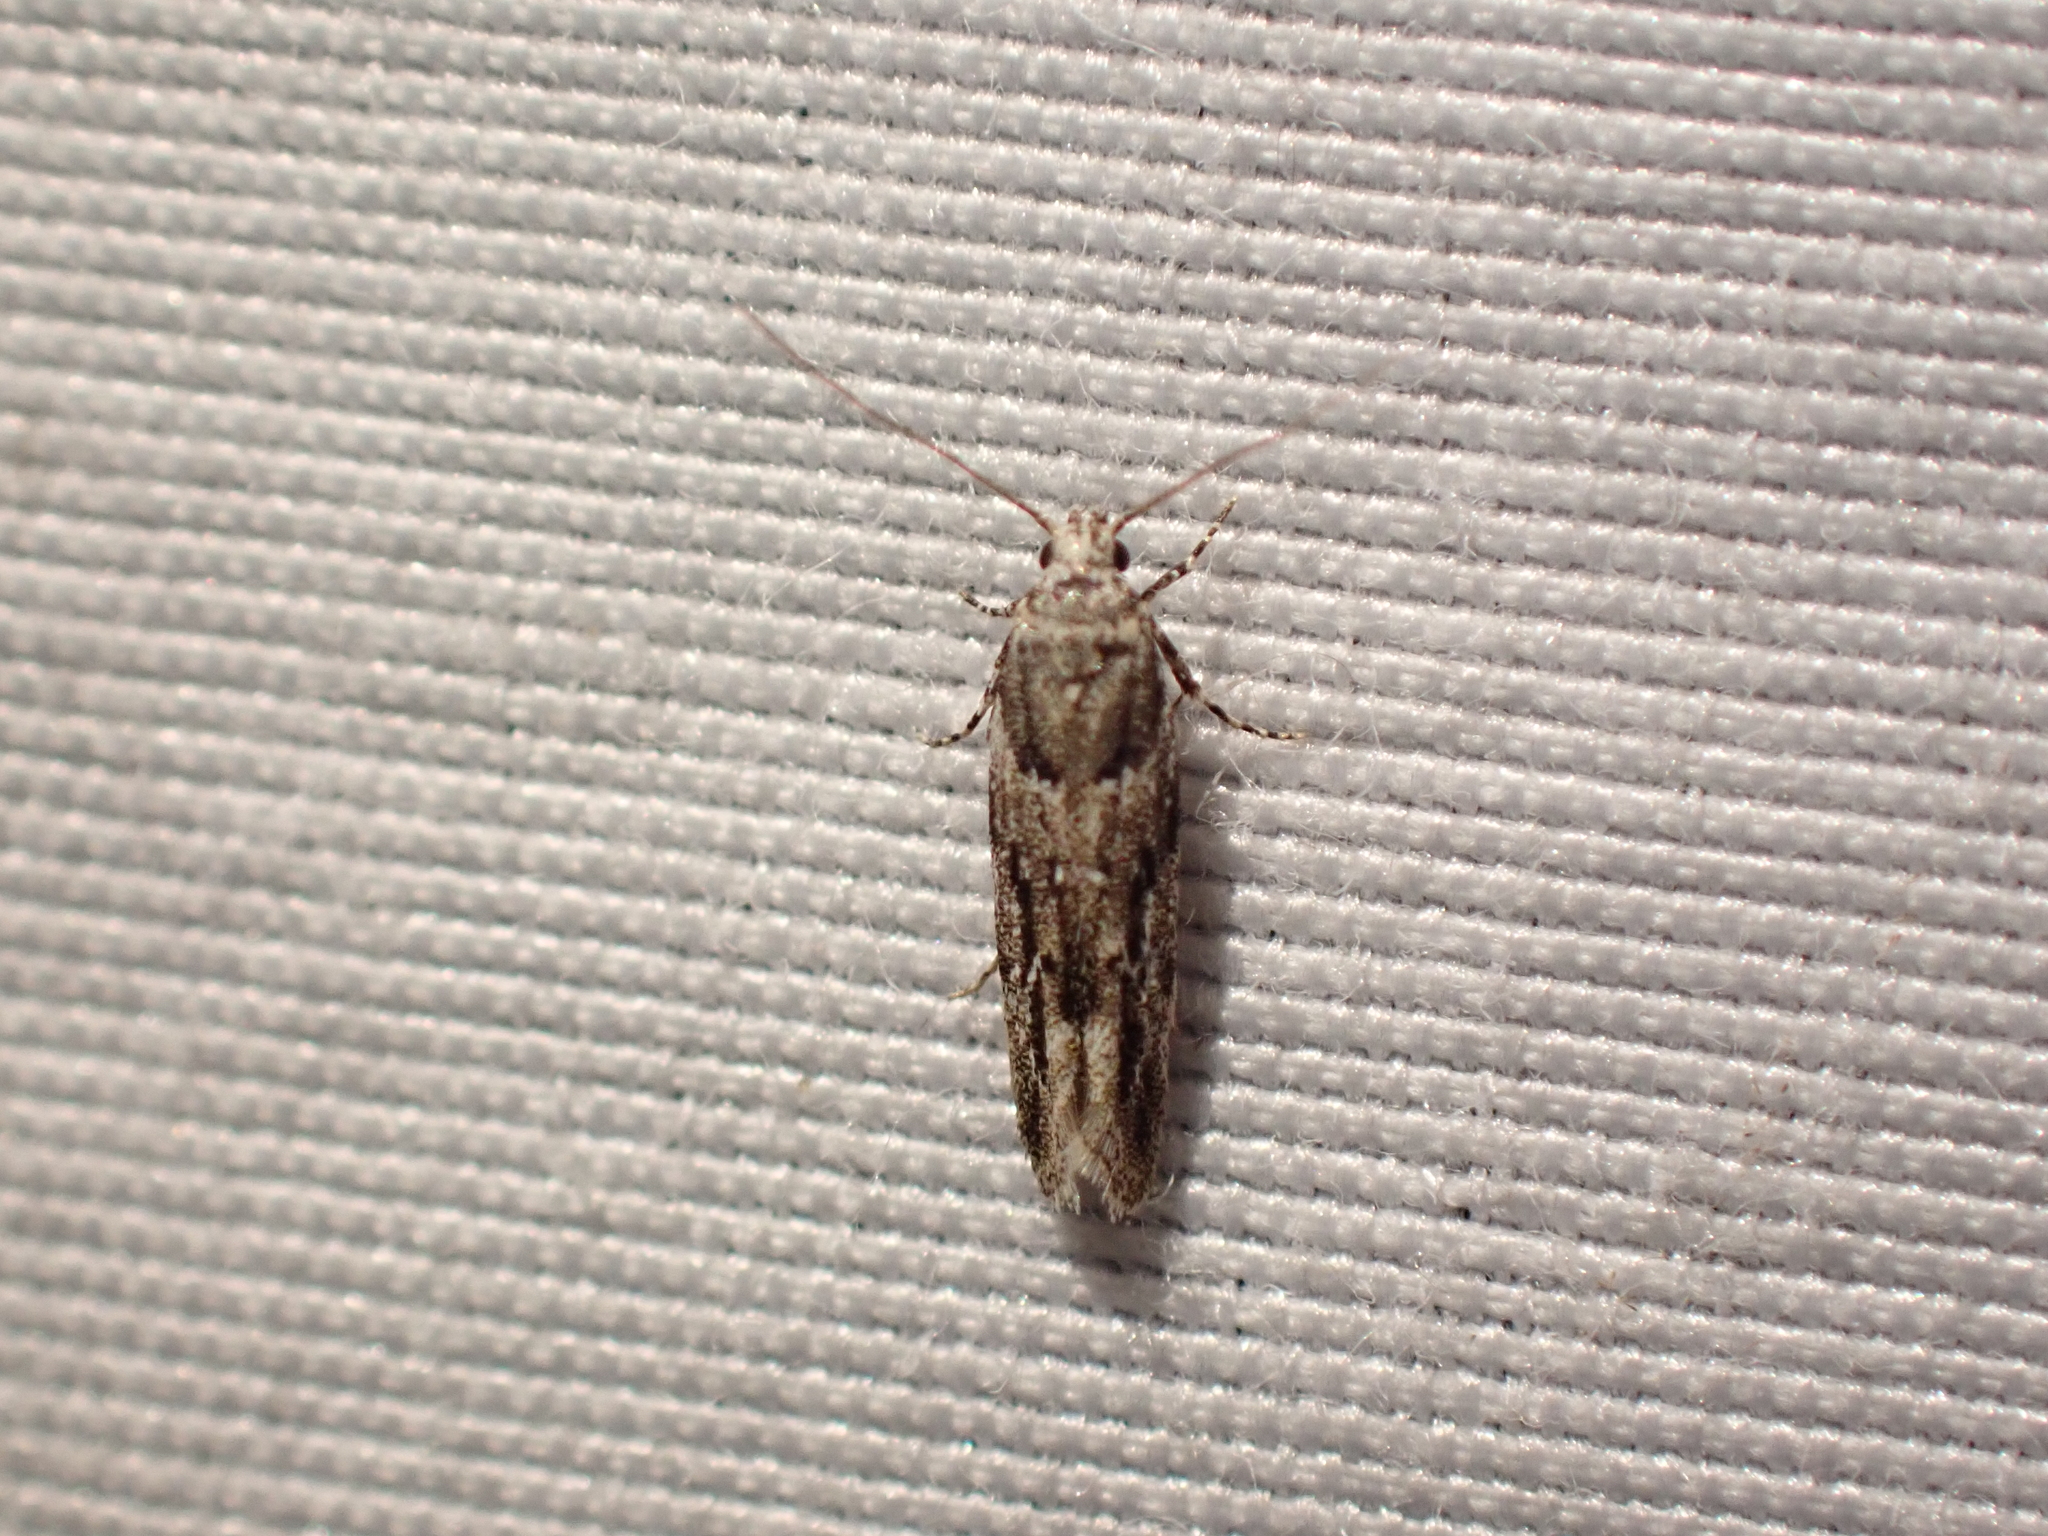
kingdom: Animalia
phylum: Arthropoda
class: Insecta
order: Lepidoptera
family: Gelechiidae
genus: Recurvaria
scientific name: Recurvaria nanella
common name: Gelechiid moth
